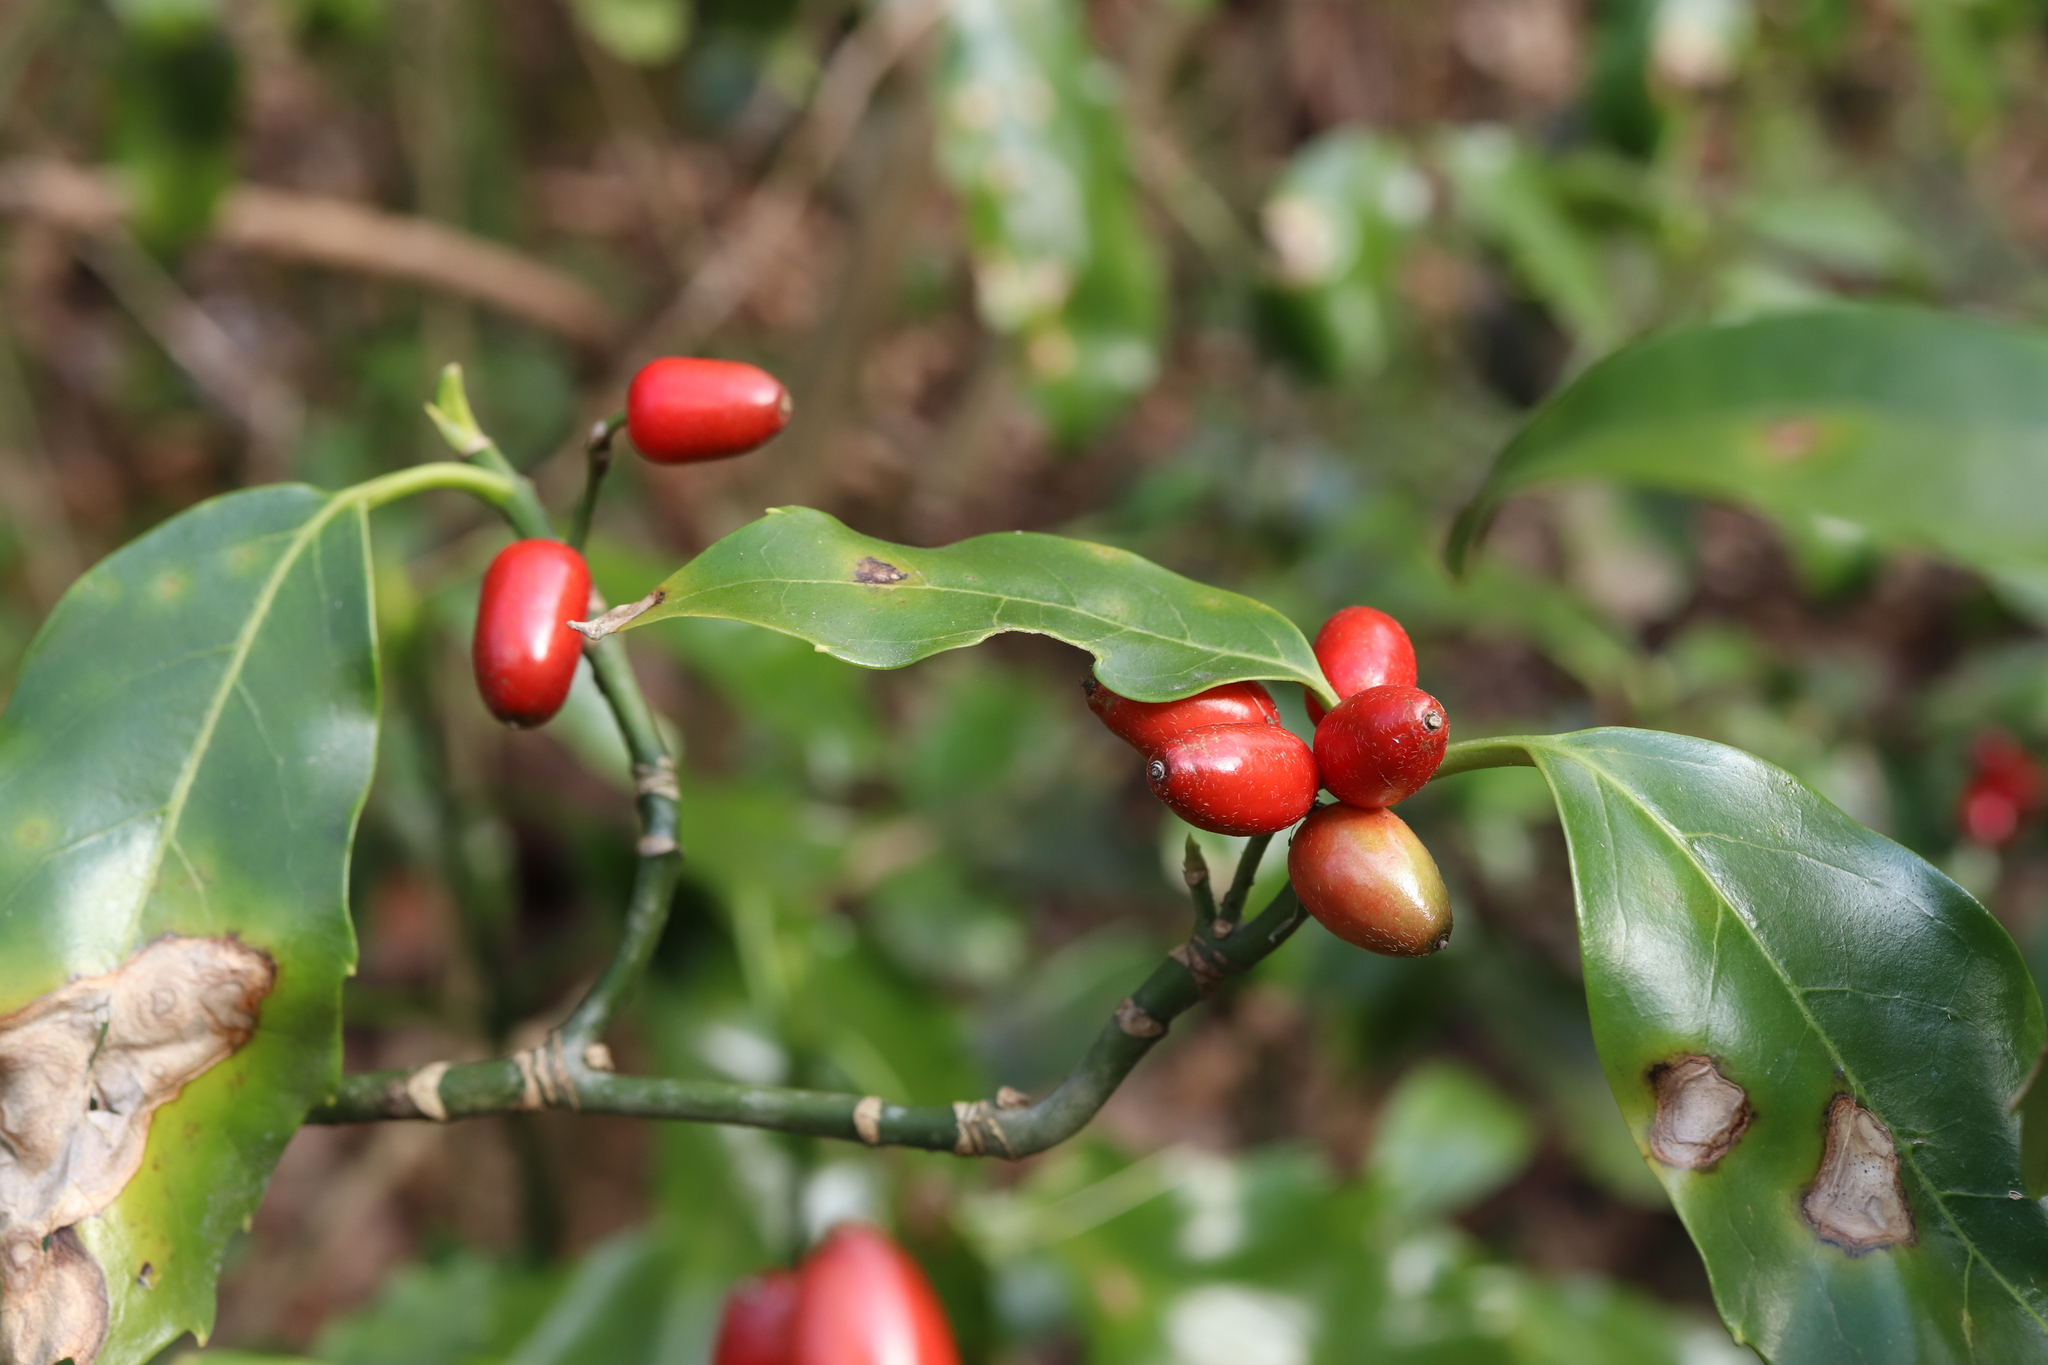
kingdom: Plantae
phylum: Tracheophyta
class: Magnoliopsida
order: Garryales
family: Garryaceae
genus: Aucuba
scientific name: Aucuba japonica
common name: Spotted-laurel
